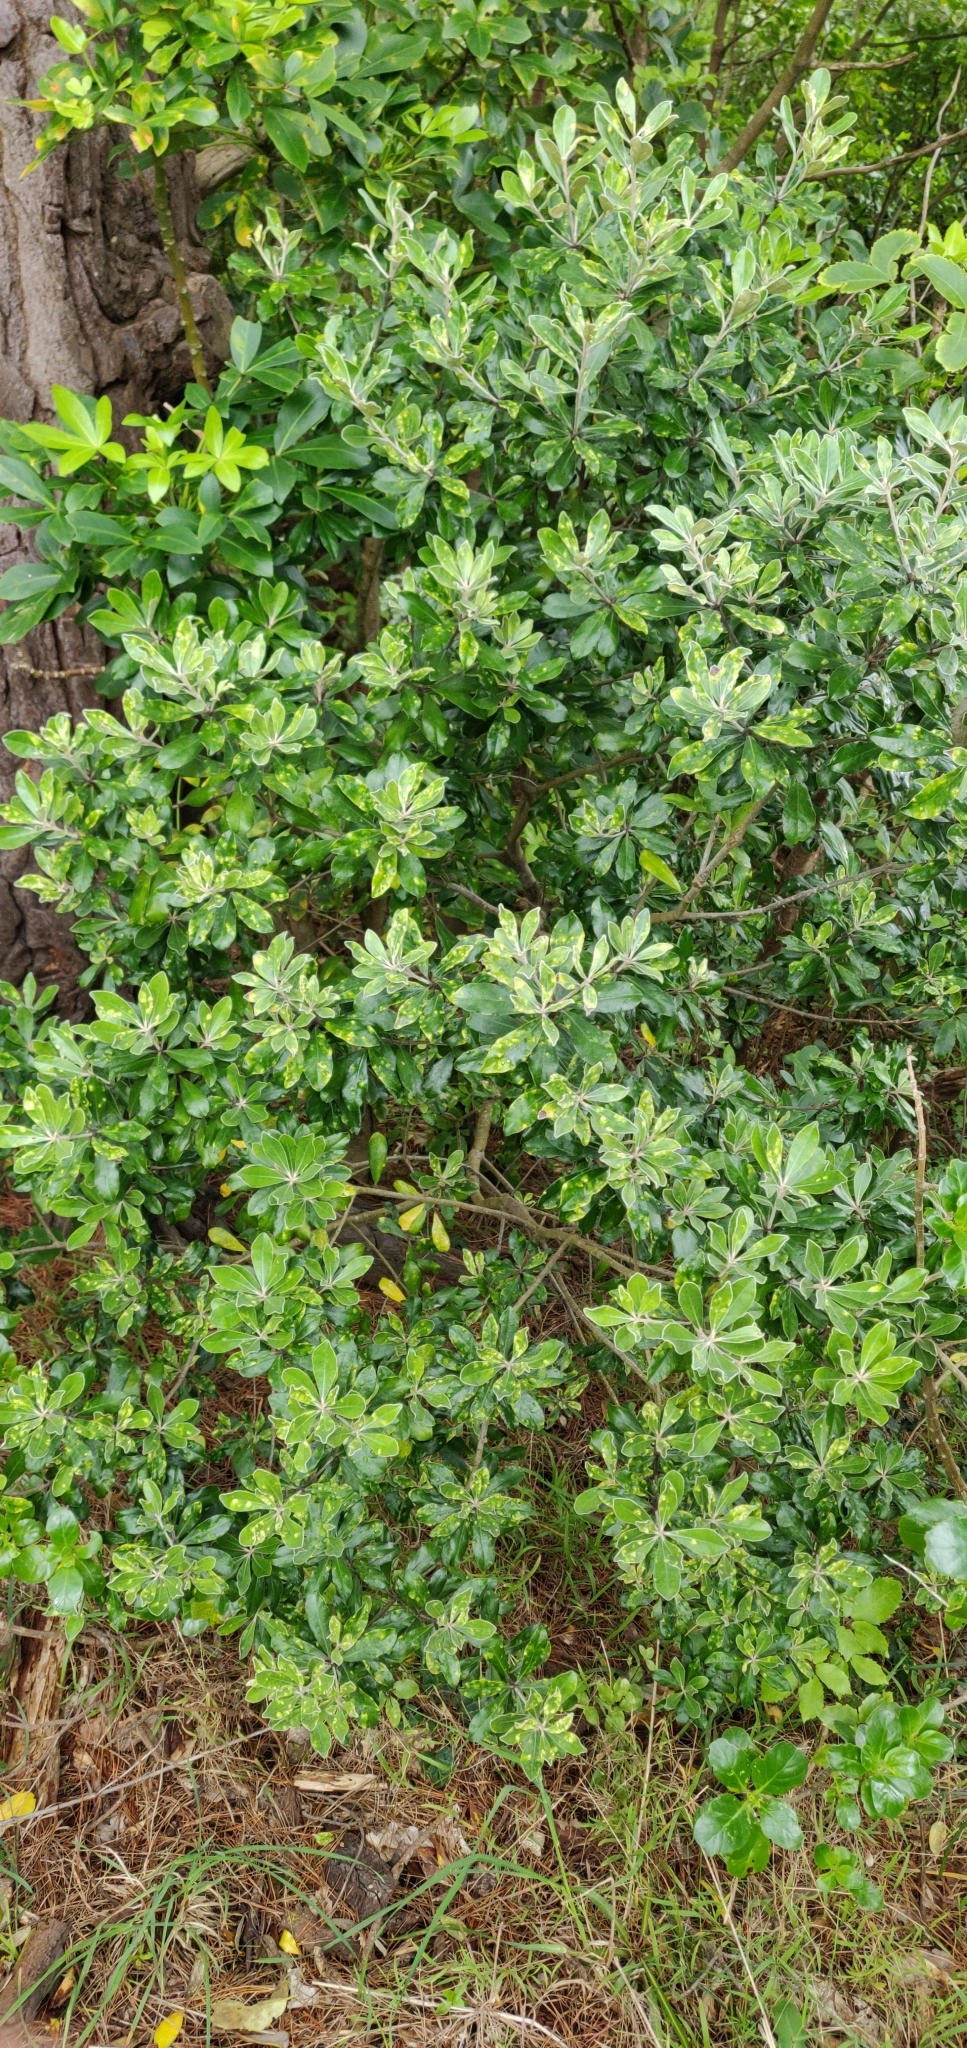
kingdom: Plantae
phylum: Tracheophyta
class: Magnoliopsida
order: Apiales
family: Pittosporaceae
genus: Pittosporum
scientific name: Pittosporum crassifolium
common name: Karo
